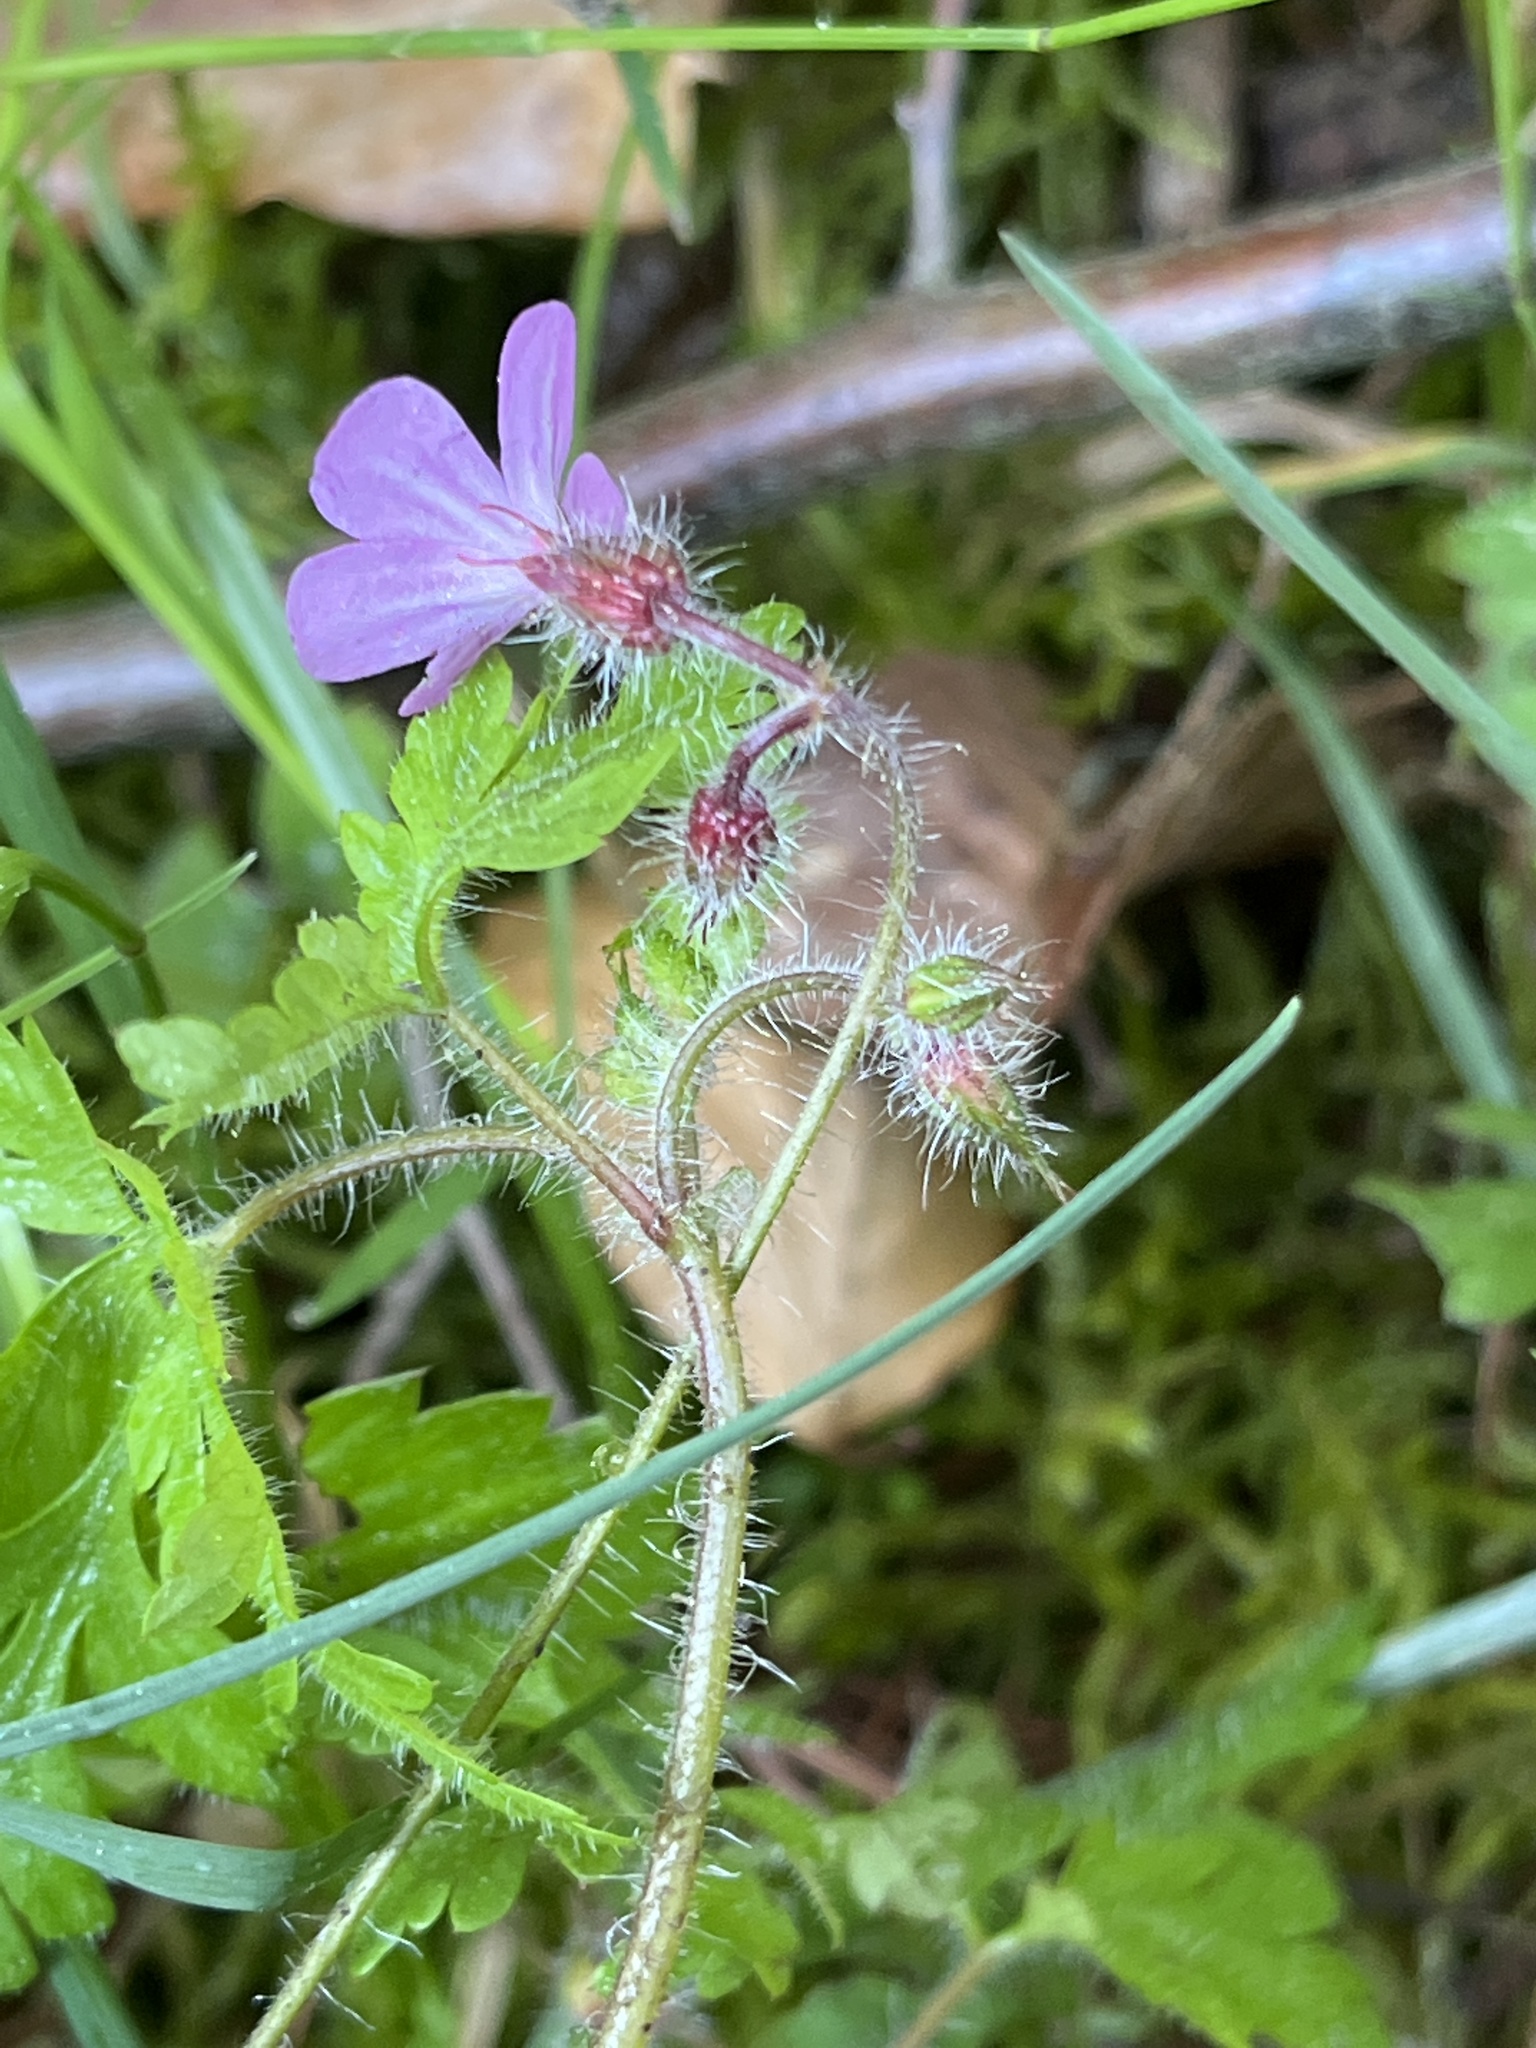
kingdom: Plantae
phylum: Tracheophyta
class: Magnoliopsida
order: Geraniales
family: Geraniaceae
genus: Geranium
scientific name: Geranium robertianum
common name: Herb-robert
